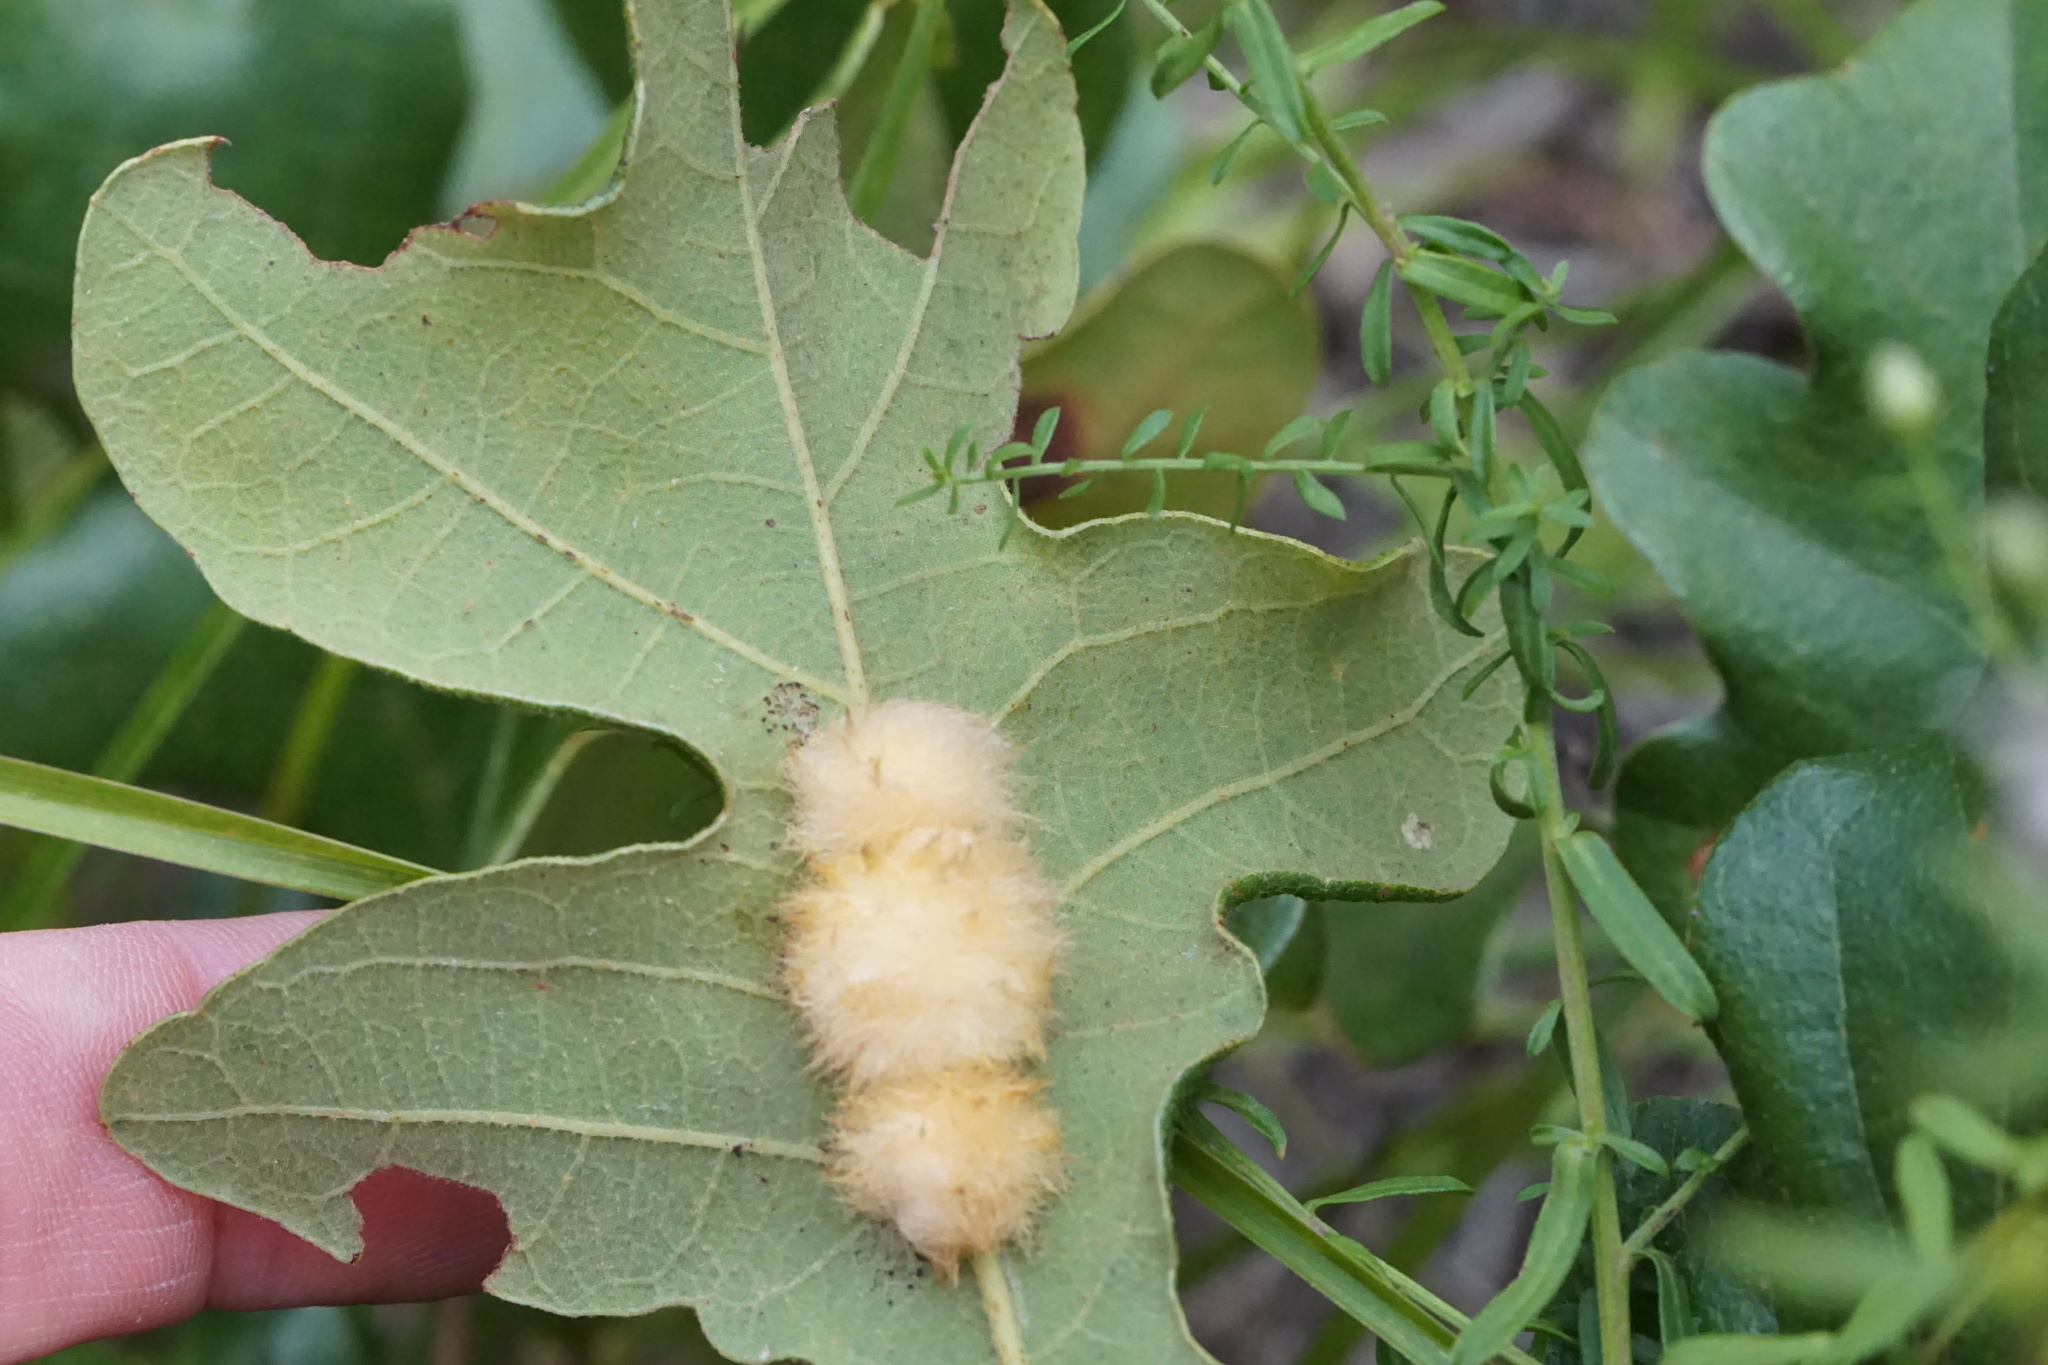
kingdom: Animalia
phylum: Arthropoda
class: Insecta
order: Hymenoptera
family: Cynipidae
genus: Andricus
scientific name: Andricus Druon pattoni
